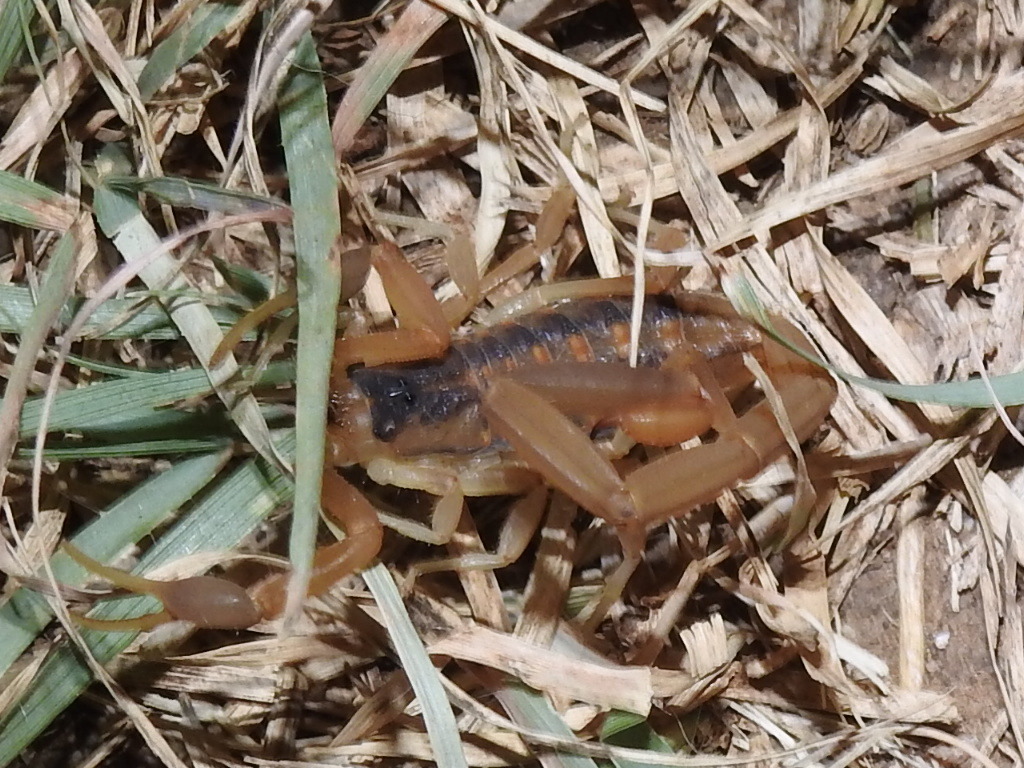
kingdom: Animalia
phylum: Arthropoda
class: Arachnida
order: Scorpiones
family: Buthidae
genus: Centruroides
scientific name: Centruroides vittatus
